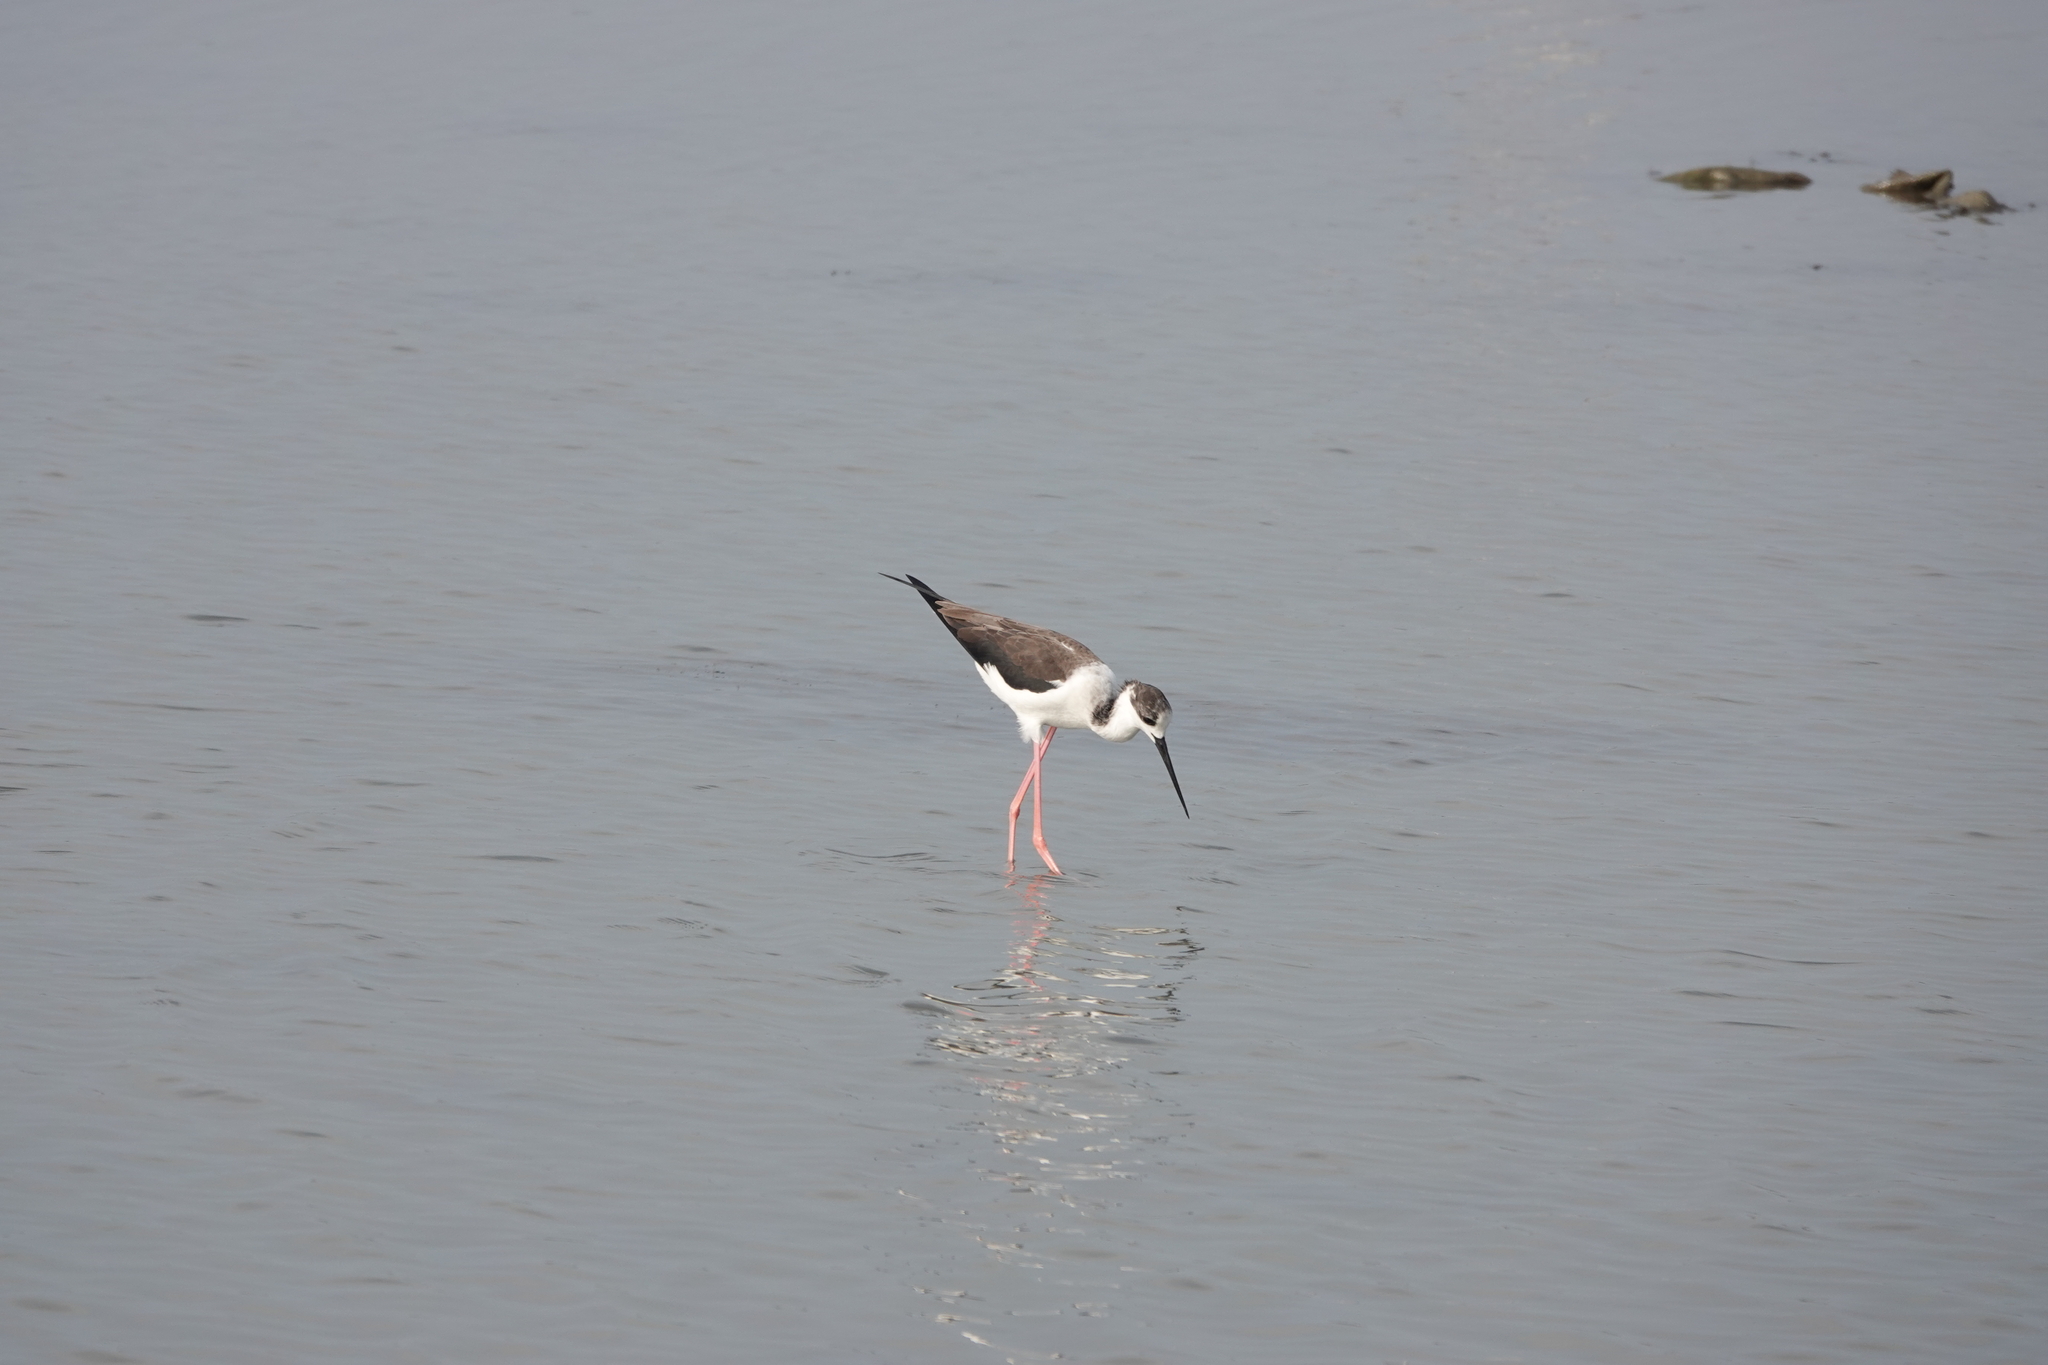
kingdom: Animalia
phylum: Chordata
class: Aves
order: Charadriiformes
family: Recurvirostridae
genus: Himantopus
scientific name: Himantopus himantopus
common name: Black-winged stilt
